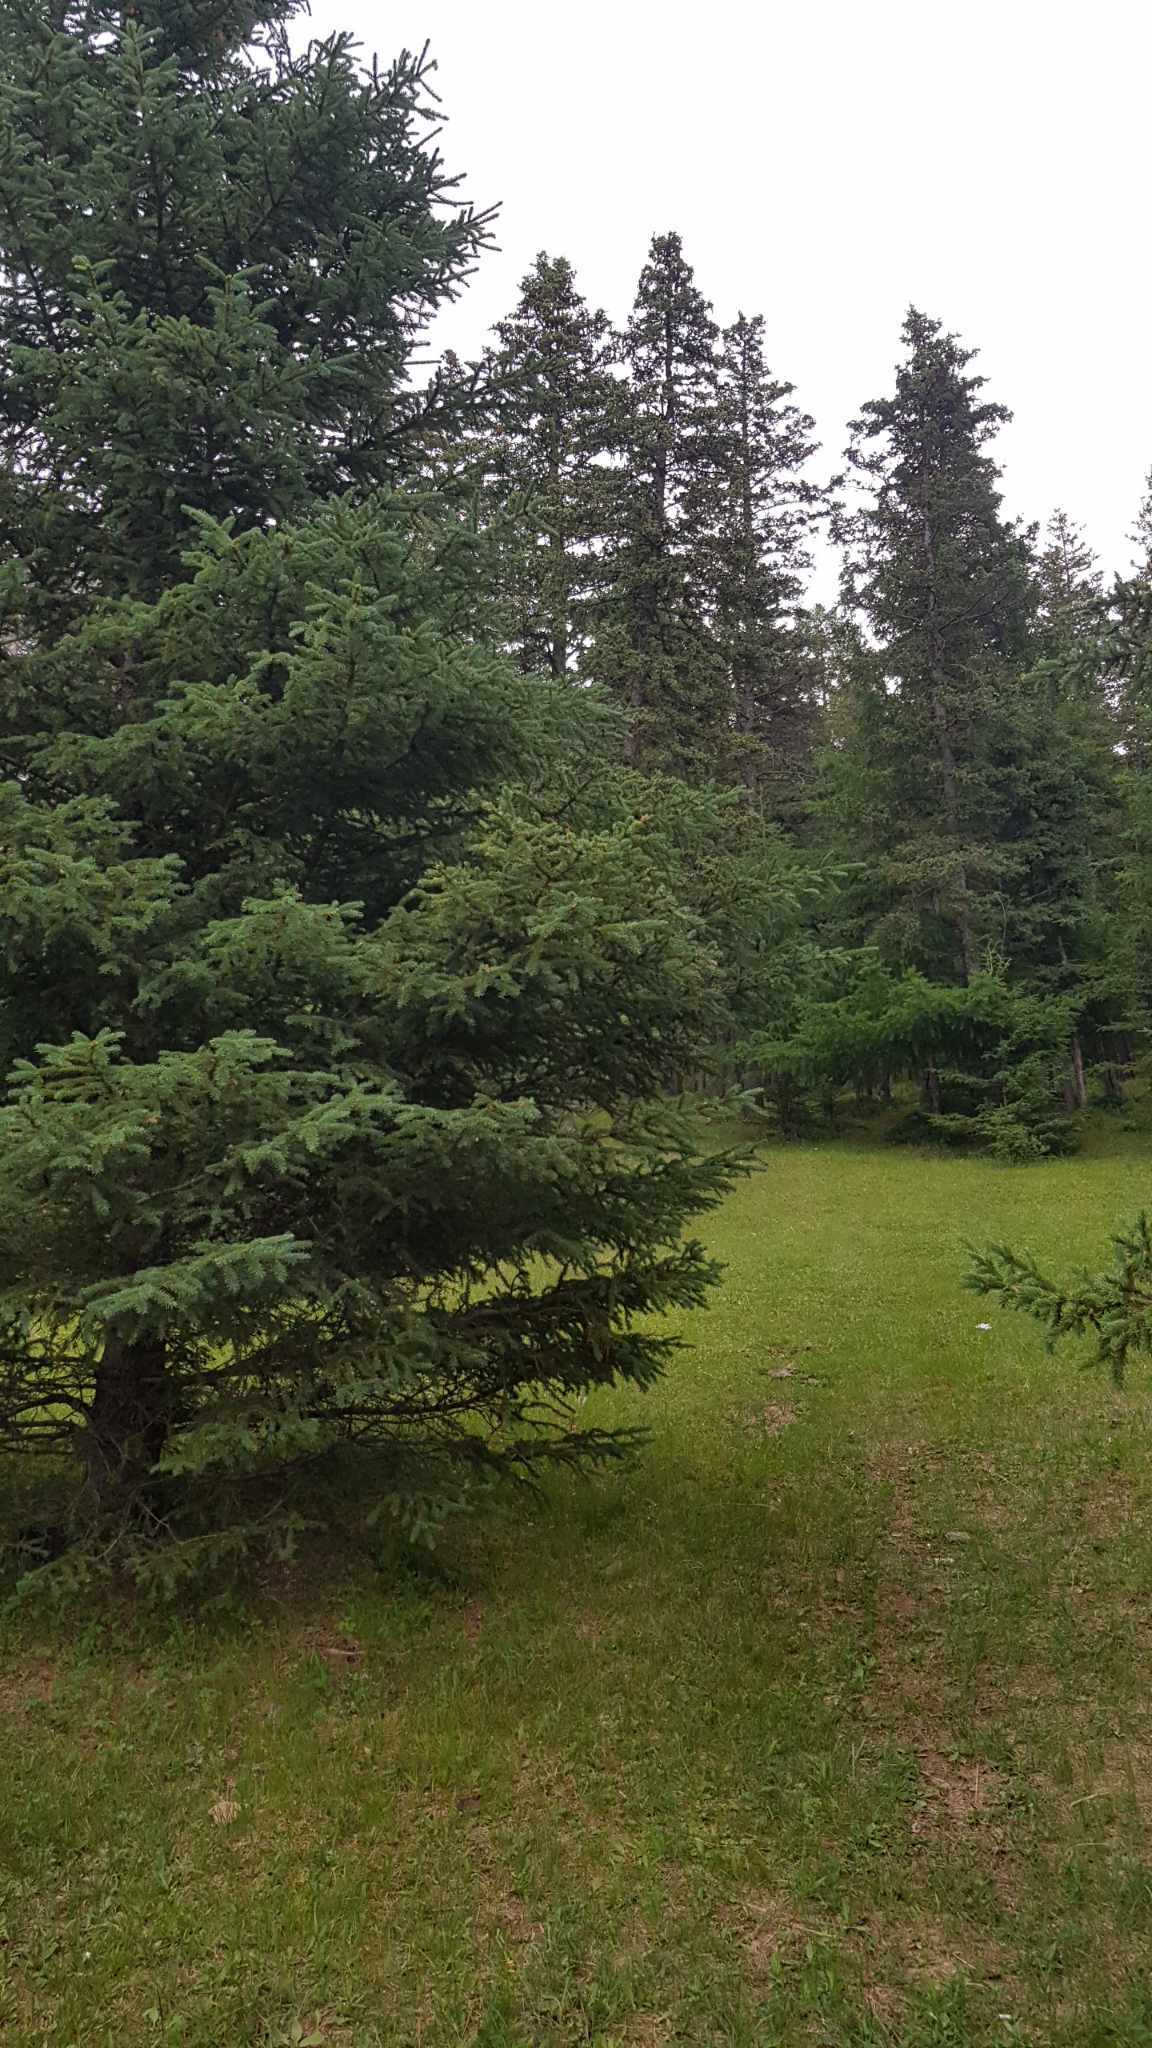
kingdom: Plantae
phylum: Tracheophyta
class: Pinopsida
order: Pinales
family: Pinaceae
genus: Picea
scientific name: Picea obovata
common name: Siberian spruce
